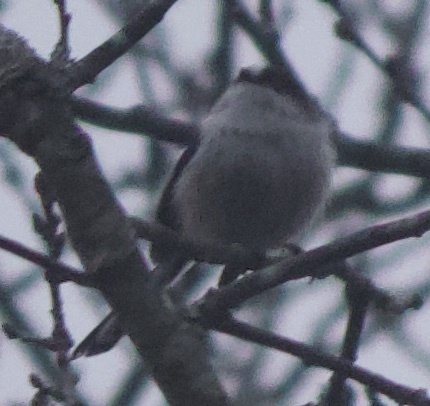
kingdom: Animalia
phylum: Chordata
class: Aves
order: Passeriformes
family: Aegithalidae
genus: Aegithalos
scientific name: Aegithalos caudatus
